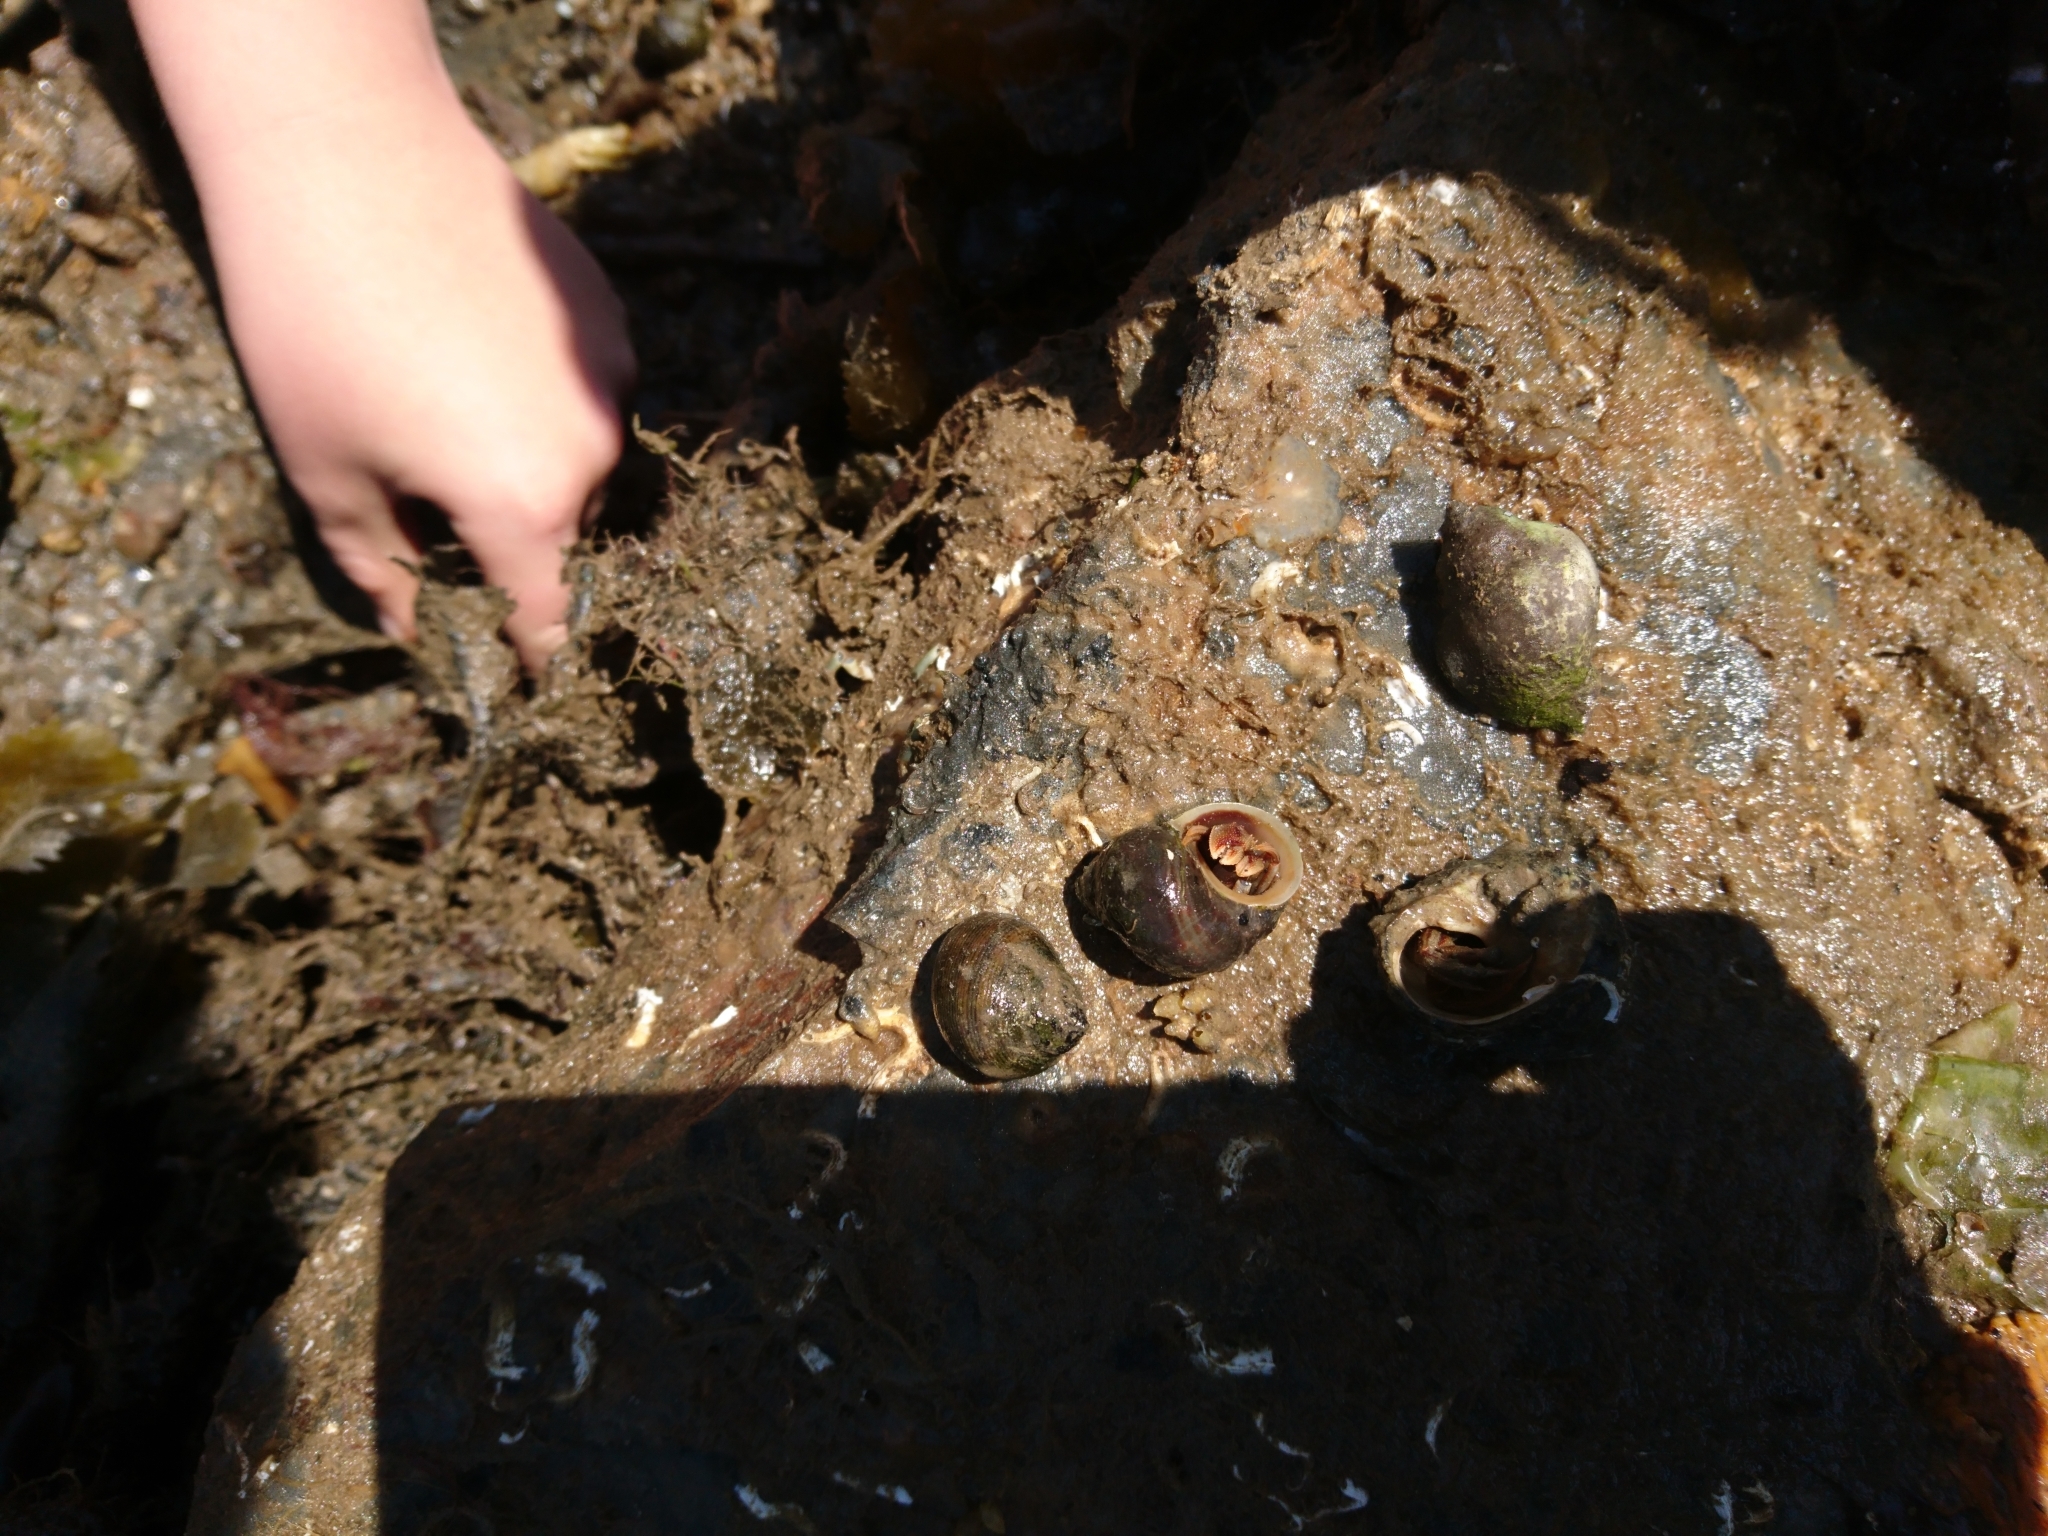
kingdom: Animalia
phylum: Arthropoda
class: Malacostraca
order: Decapoda
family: Paguridae
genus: Pagurus
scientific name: Pagurus bernhardus
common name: Hermit crab
